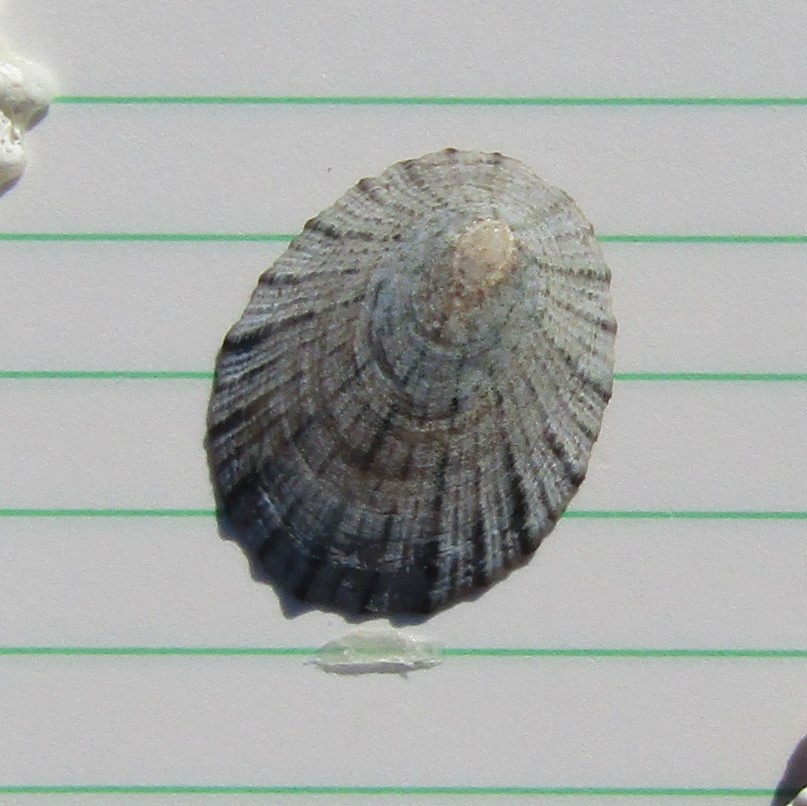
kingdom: Animalia
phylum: Mollusca
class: Gastropoda
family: Nacellidae
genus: Cellana
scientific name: Cellana radians
